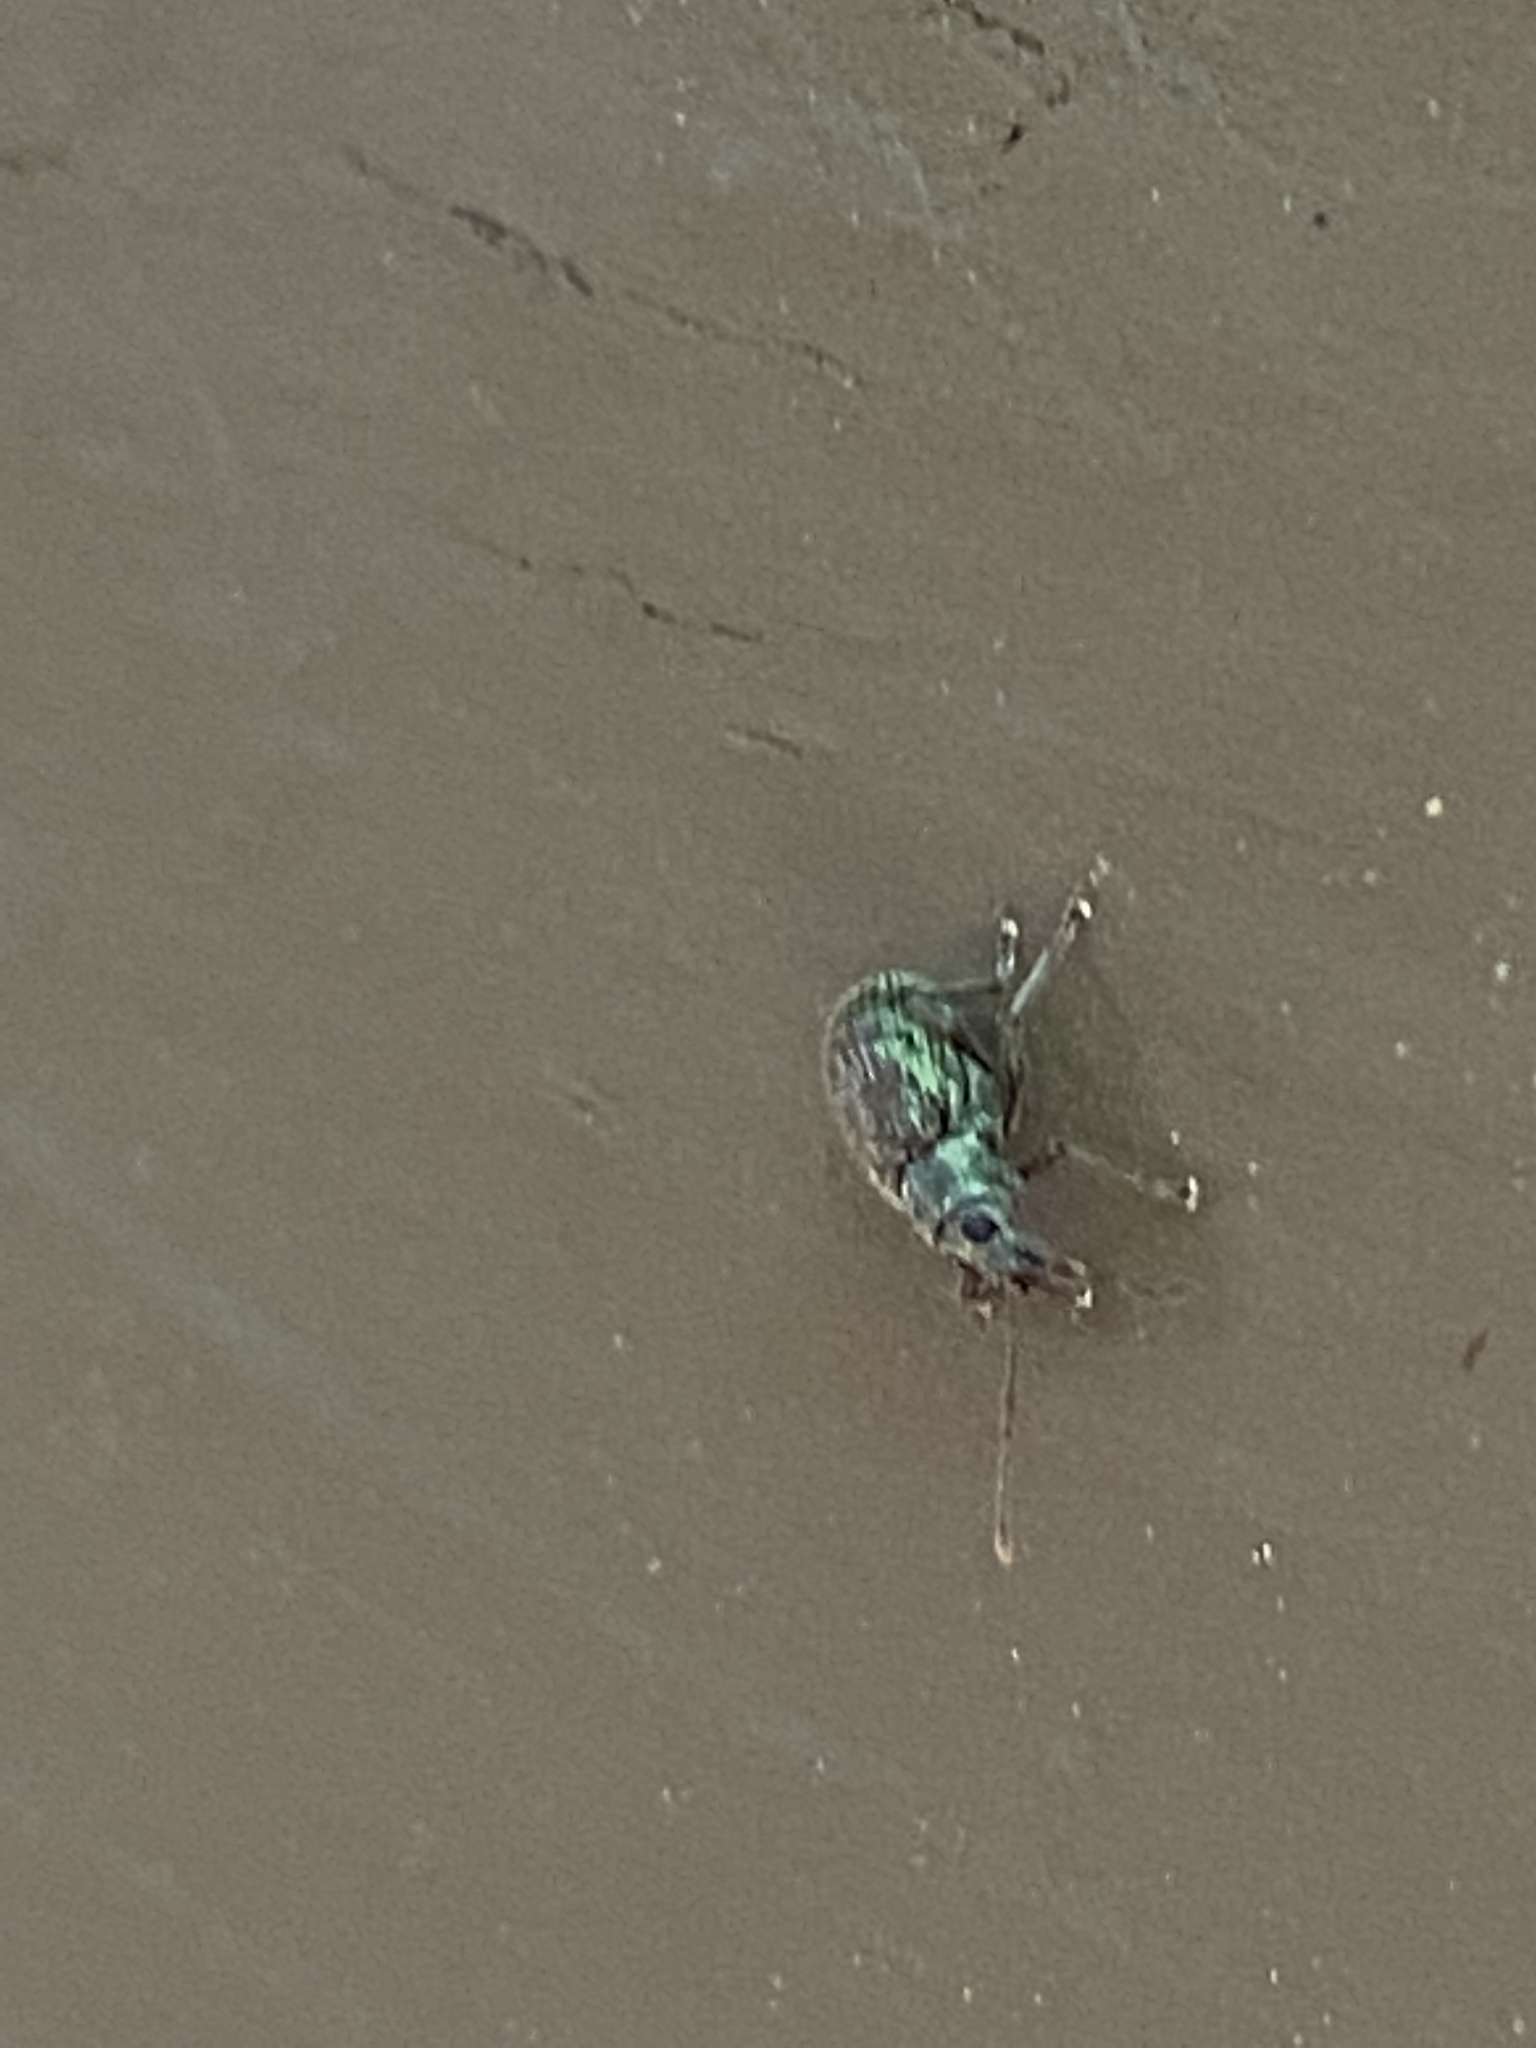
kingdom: Animalia
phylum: Arthropoda
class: Insecta
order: Coleoptera
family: Curculionidae
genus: Cyrtepistomus
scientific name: Cyrtepistomus castaneus
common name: Weevil
